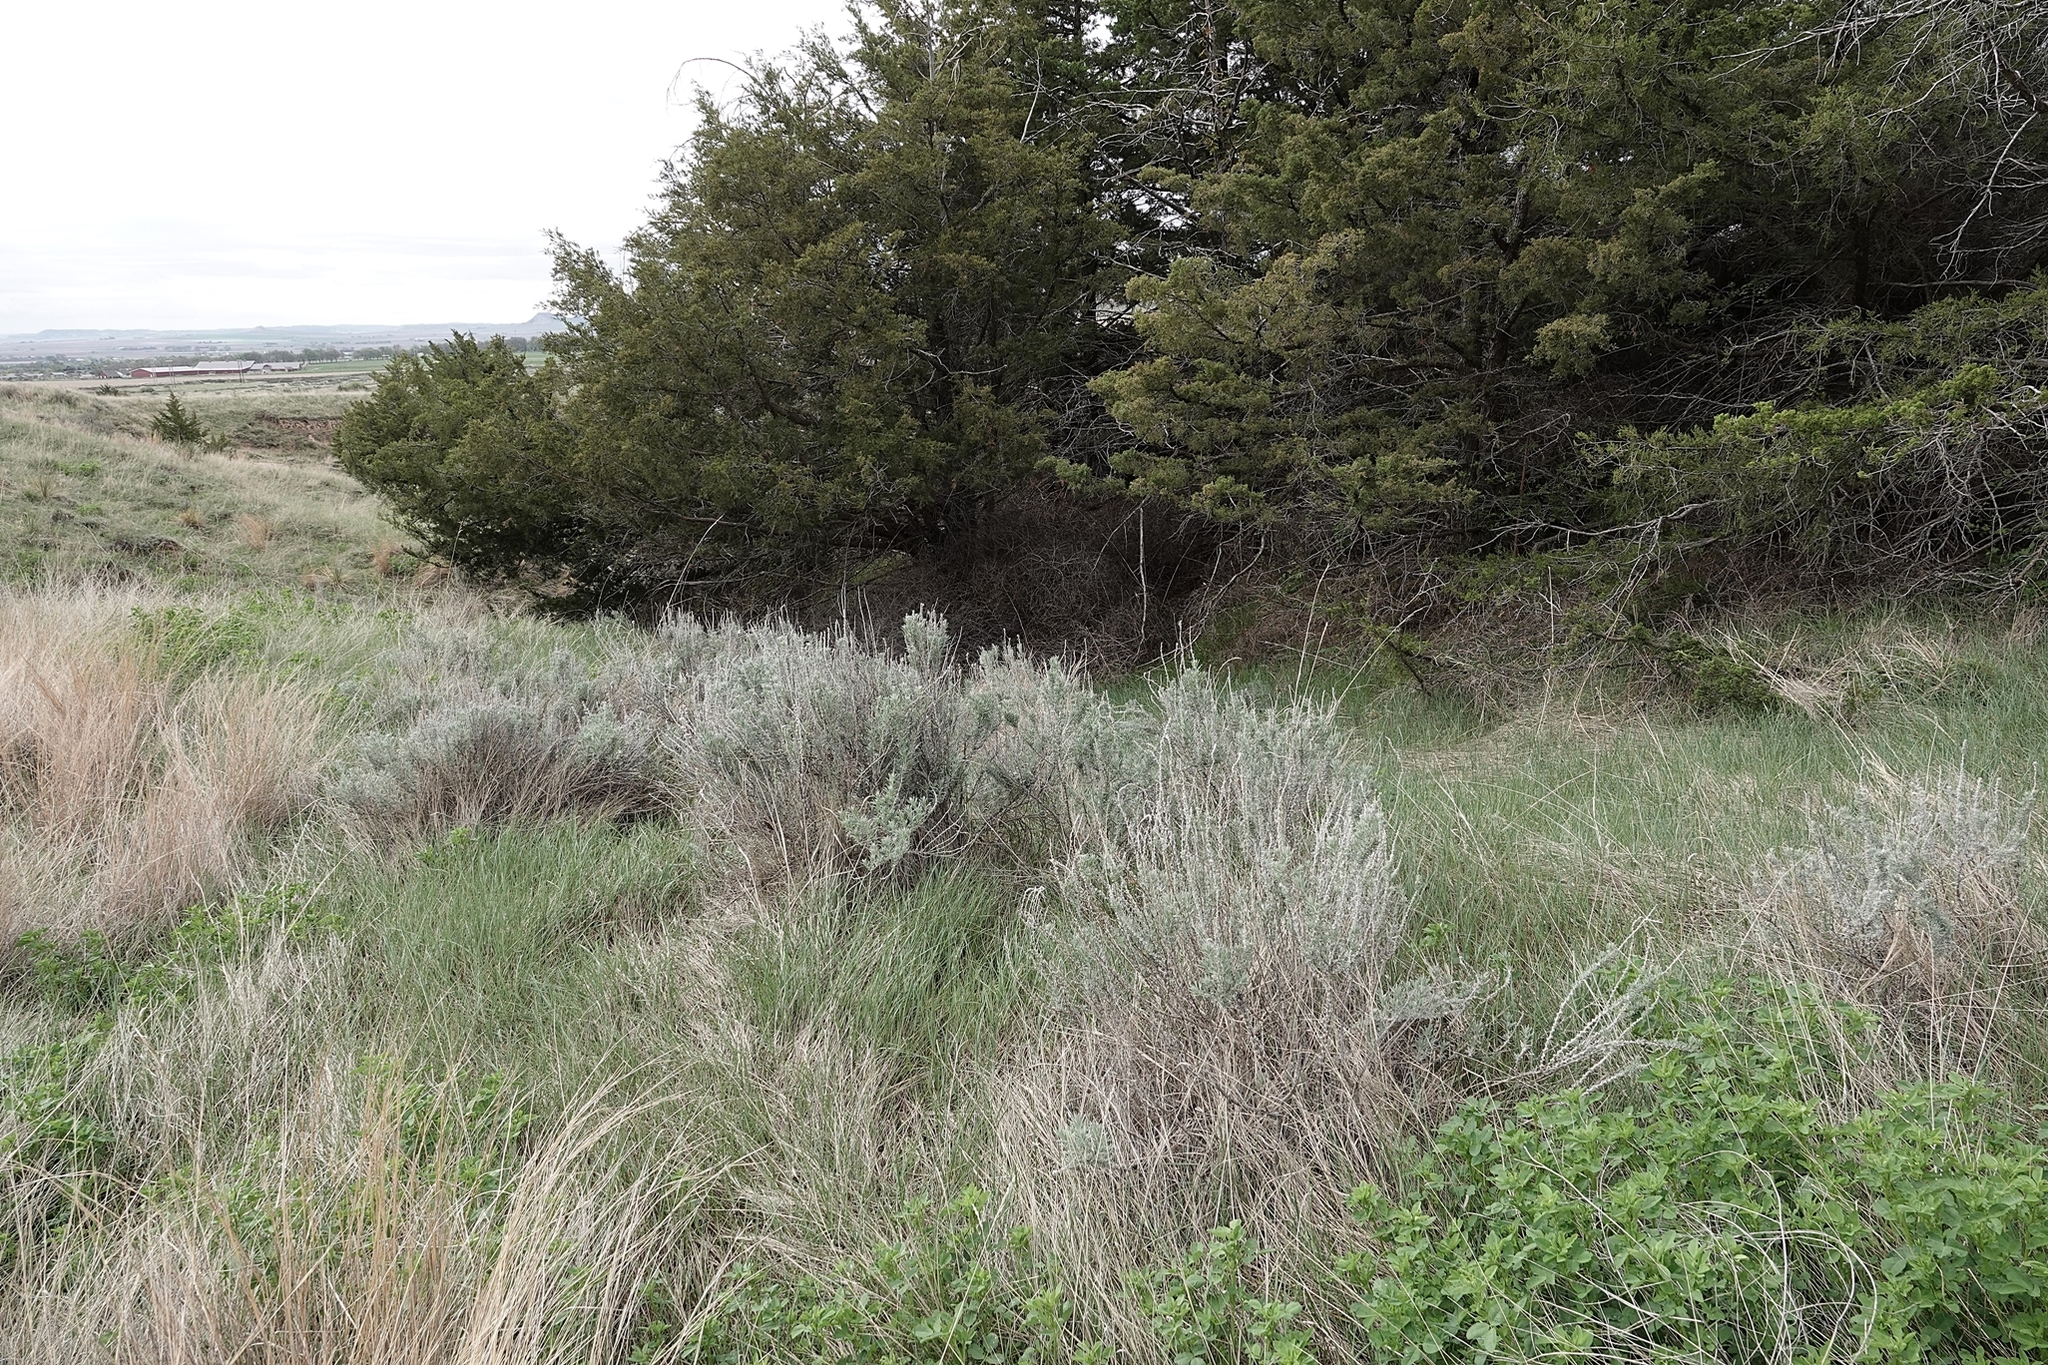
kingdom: Plantae
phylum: Tracheophyta
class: Magnoliopsida
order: Asterales
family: Asteraceae
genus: Artemisia
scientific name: Artemisia cana
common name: Silver sagebrush
